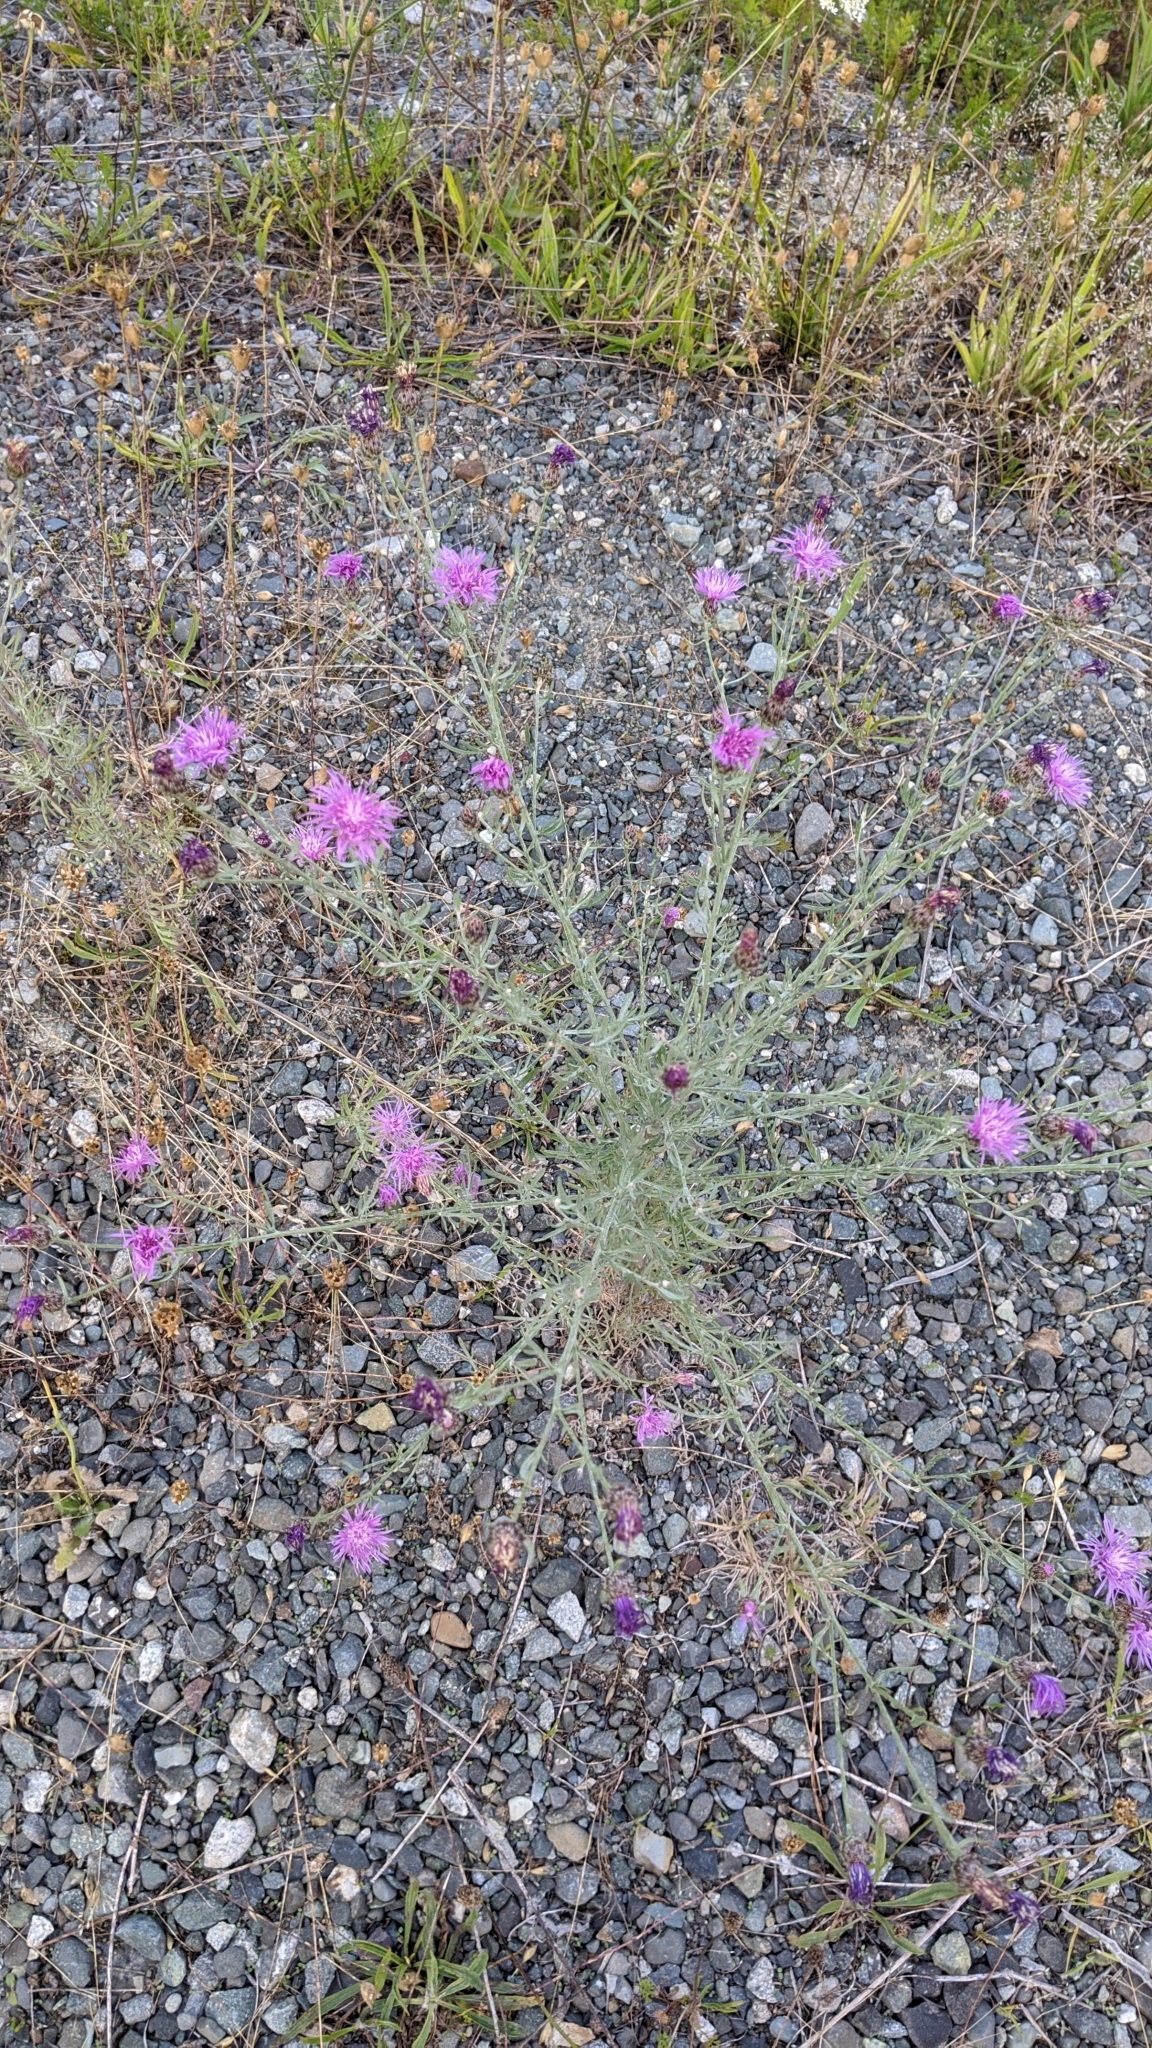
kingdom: Plantae
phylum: Tracheophyta
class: Magnoliopsida
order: Asterales
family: Asteraceae
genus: Centaurea
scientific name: Centaurea stoebe
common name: Spotted knapweed
